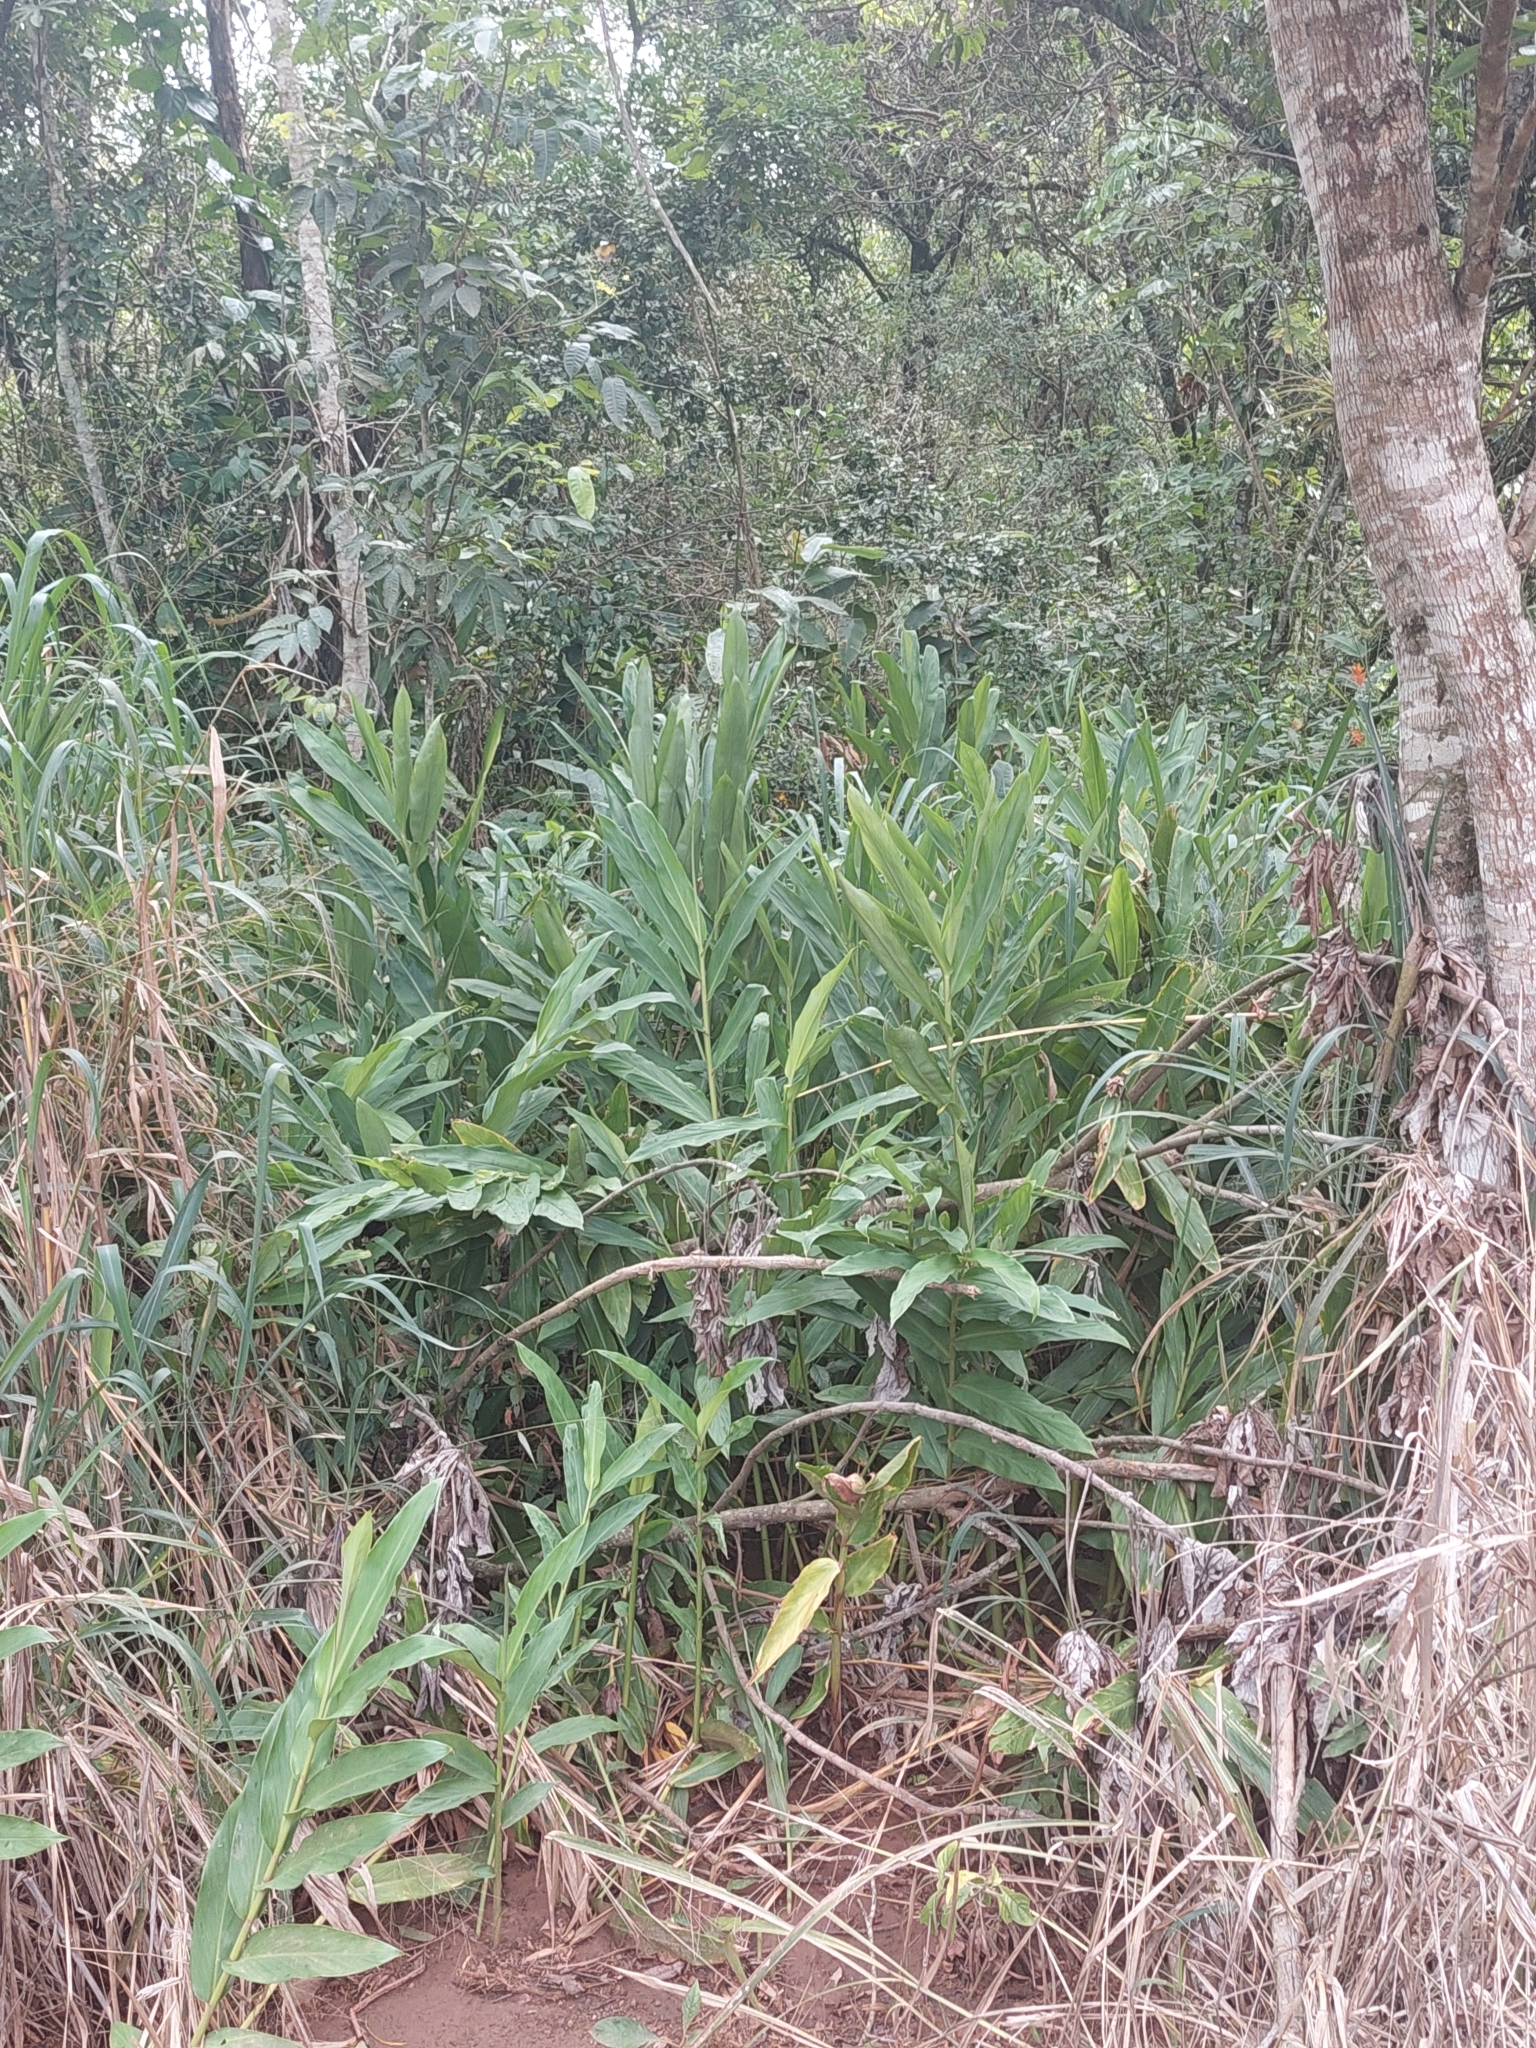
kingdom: Plantae
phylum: Tracheophyta
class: Liliopsida
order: Zingiberales
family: Zingiberaceae
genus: Hedychium
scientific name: Hedychium coronarium
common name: White garland-lily
